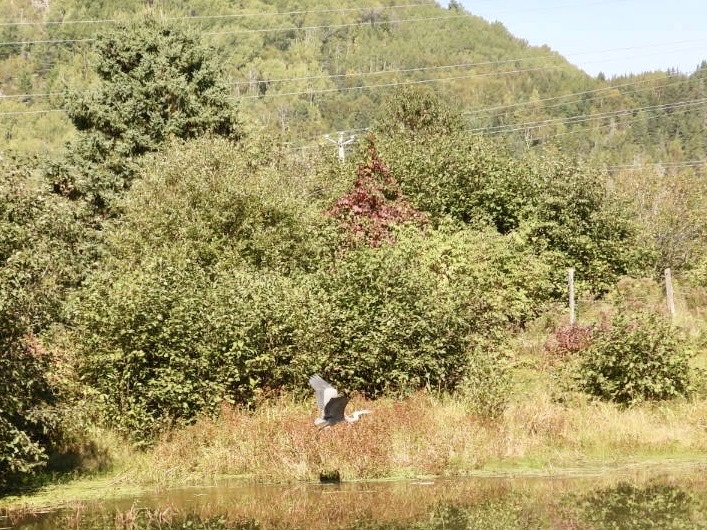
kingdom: Animalia
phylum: Chordata
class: Aves
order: Pelecaniformes
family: Ardeidae
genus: Ardea
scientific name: Ardea herodias
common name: Great blue heron
